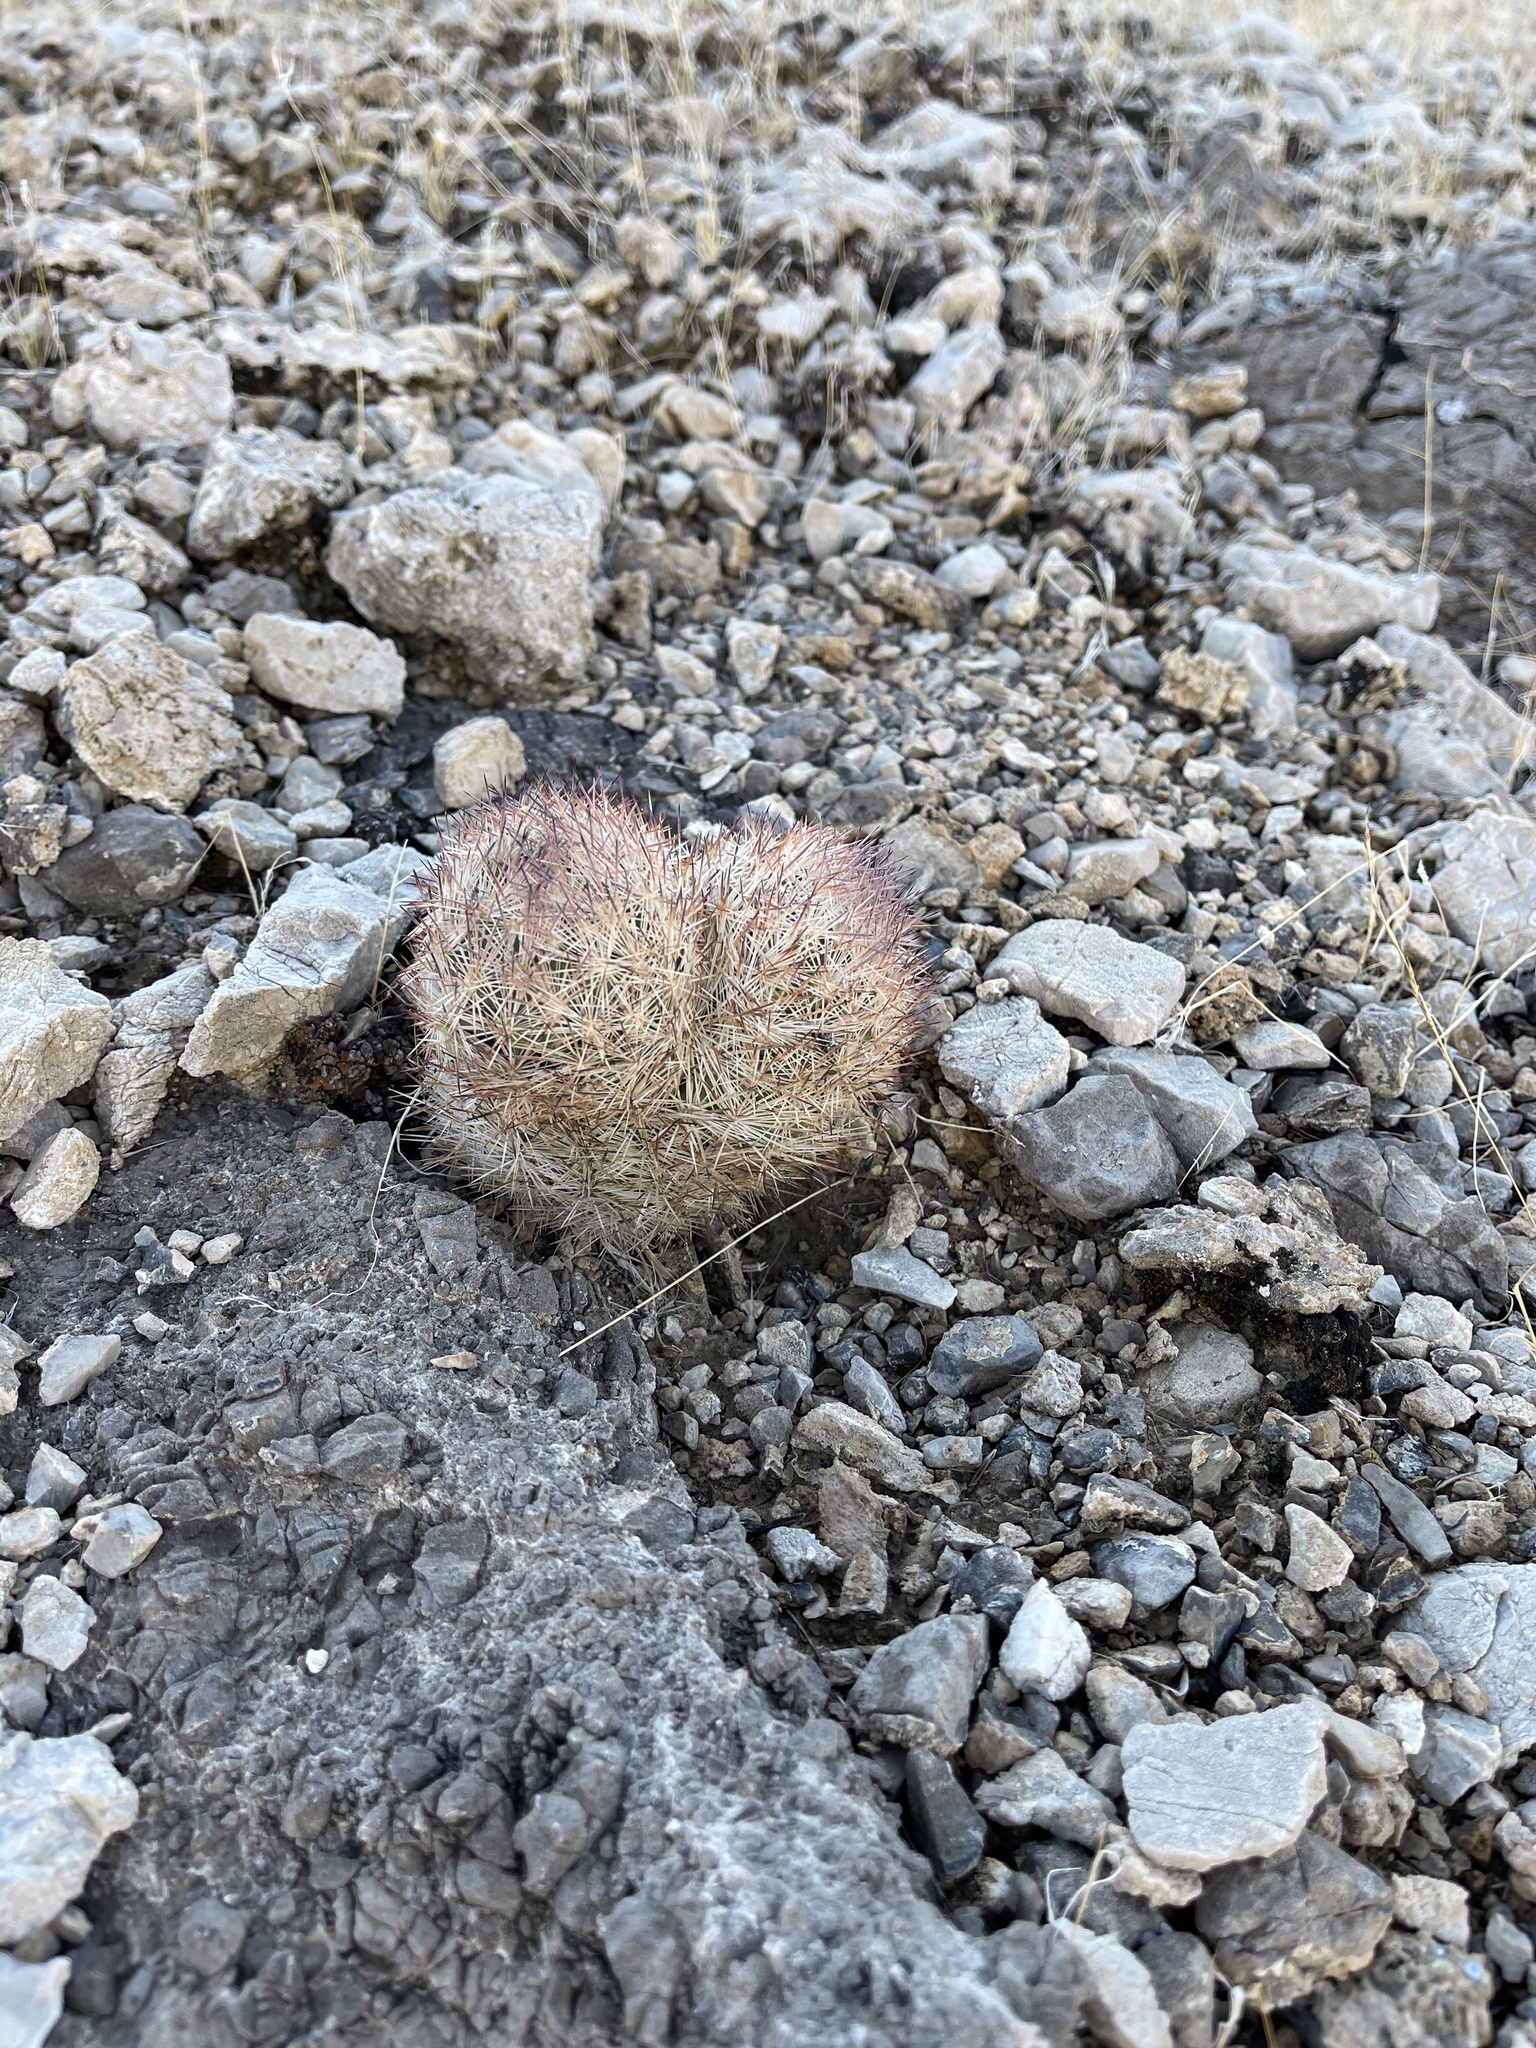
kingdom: Plantae
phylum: Tracheophyta
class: Magnoliopsida
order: Caryophyllales
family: Cactaceae
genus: Pelecyphora
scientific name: Pelecyphora dasyacantha
